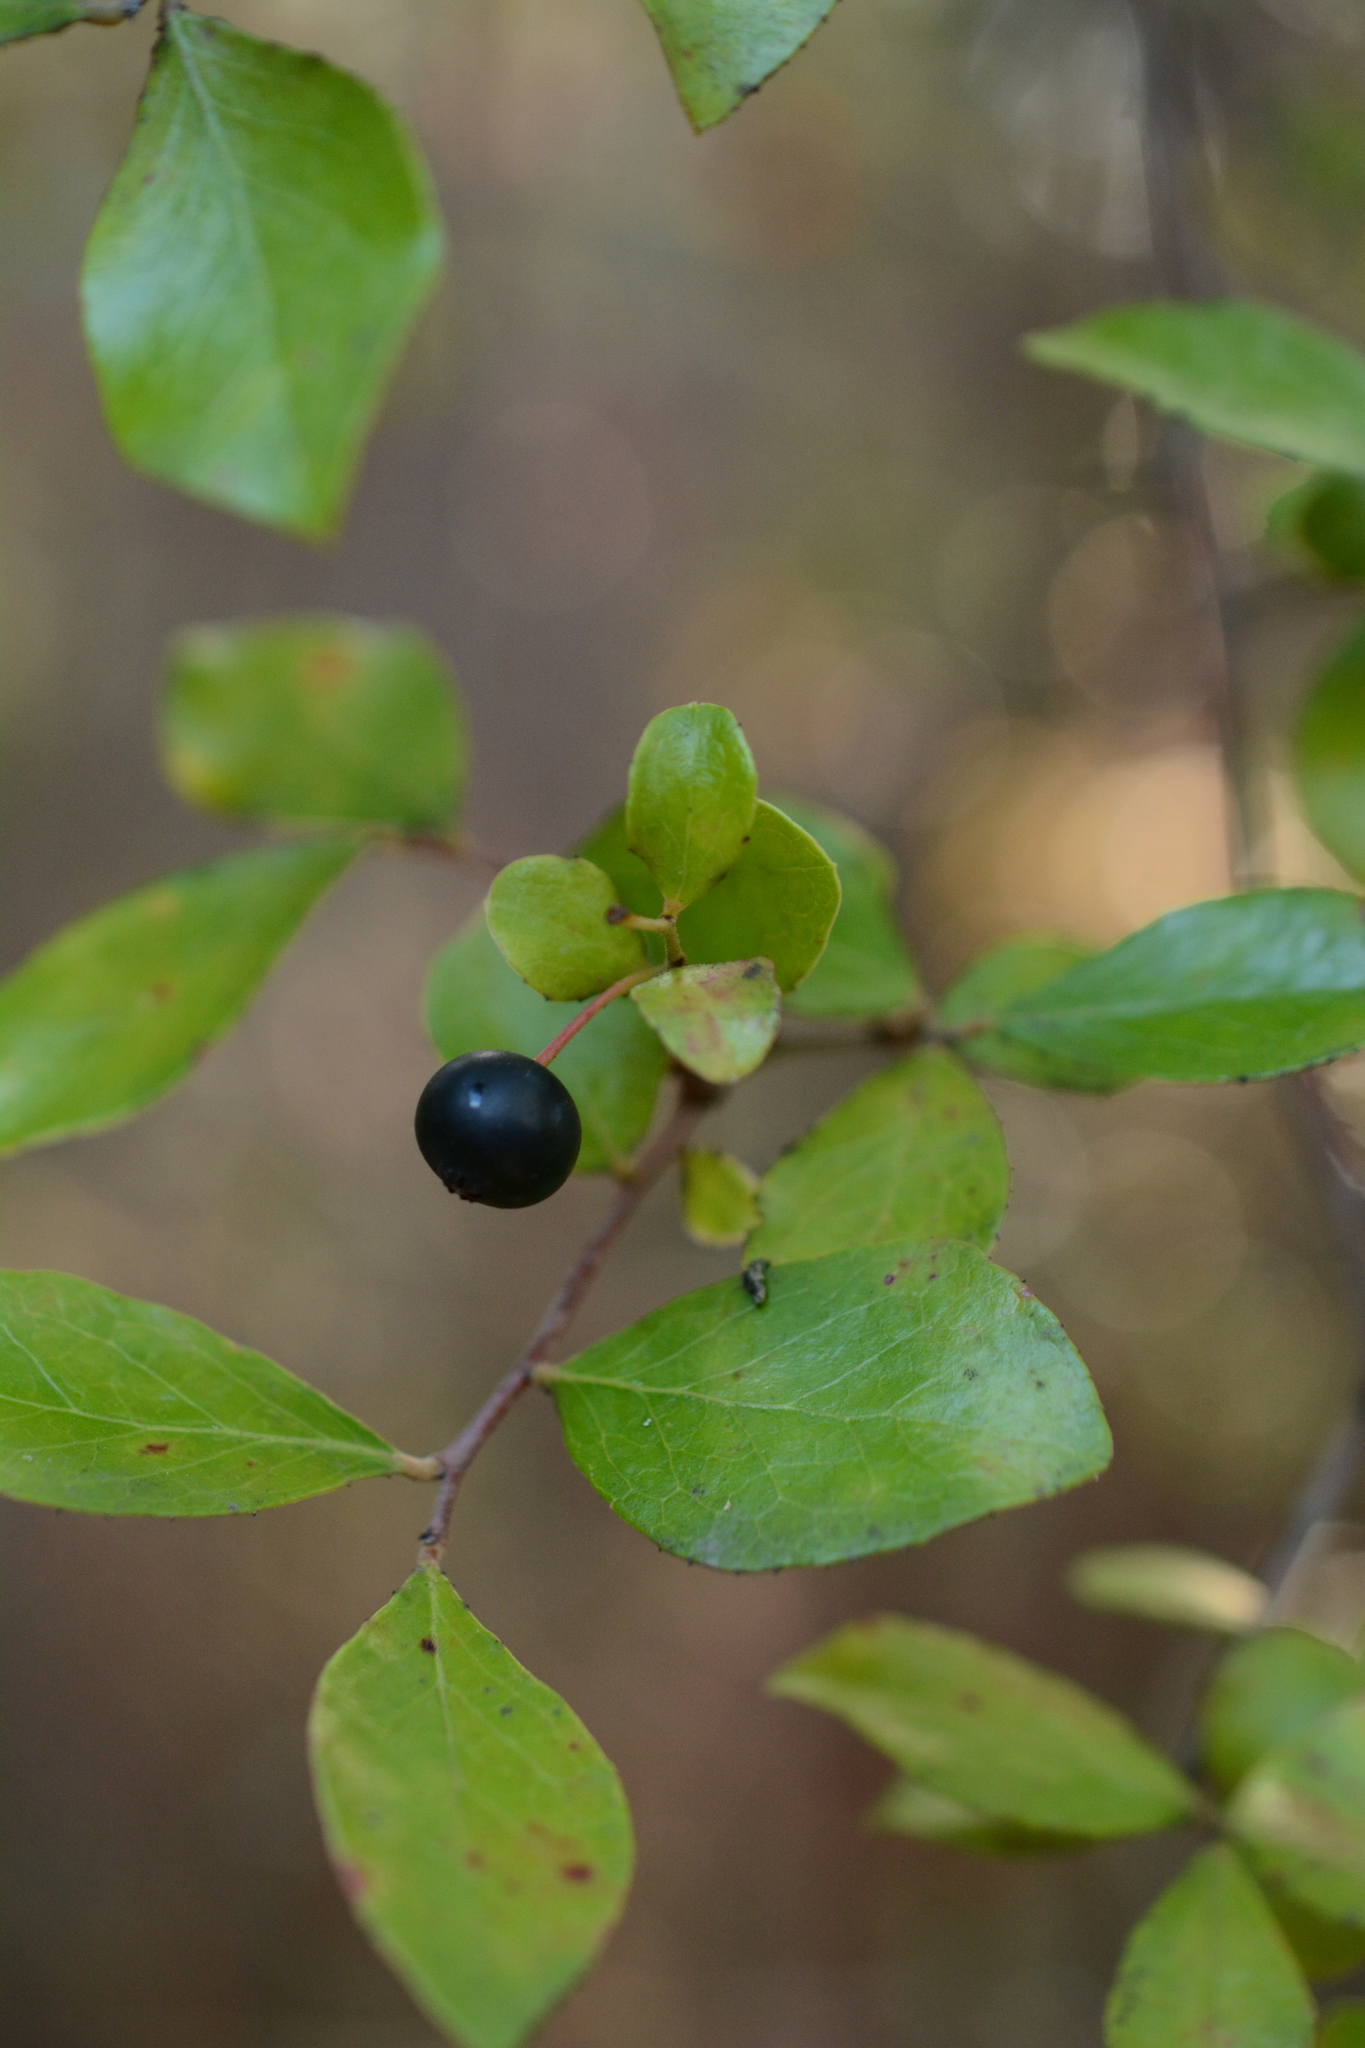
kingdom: Plantae
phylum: Tracheophyta
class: Magnoliopsida
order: Ericales
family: Ericaceae
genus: Vaccinium
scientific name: Vaccinium arboreum
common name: Farkleberry
